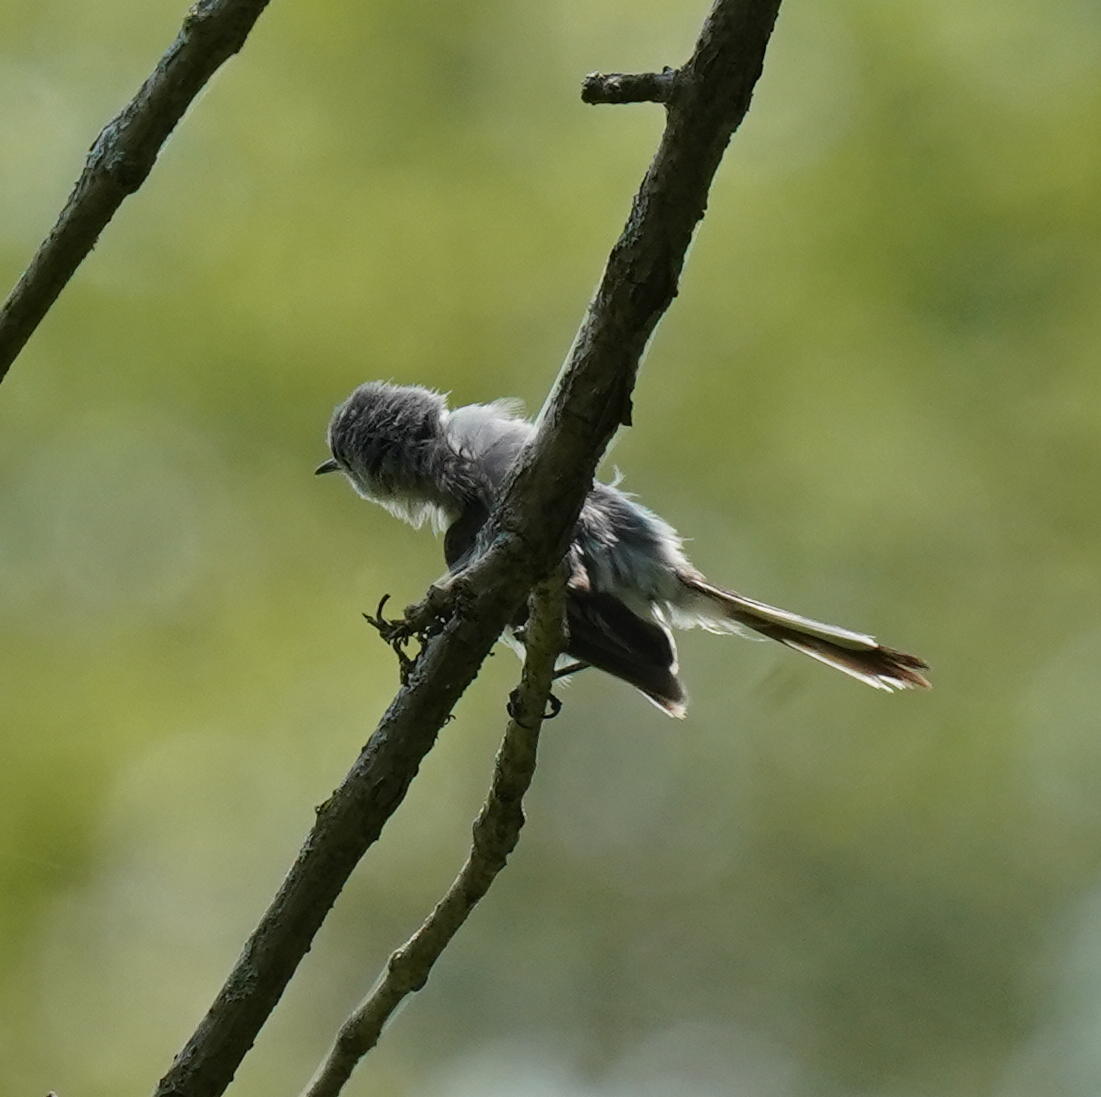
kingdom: Animalia
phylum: Chordata
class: Aves
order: Passeriformes
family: Polioptilidae
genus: Polioptila
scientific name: Polioptila caerulea
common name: Blue-gray gnatcatcher
